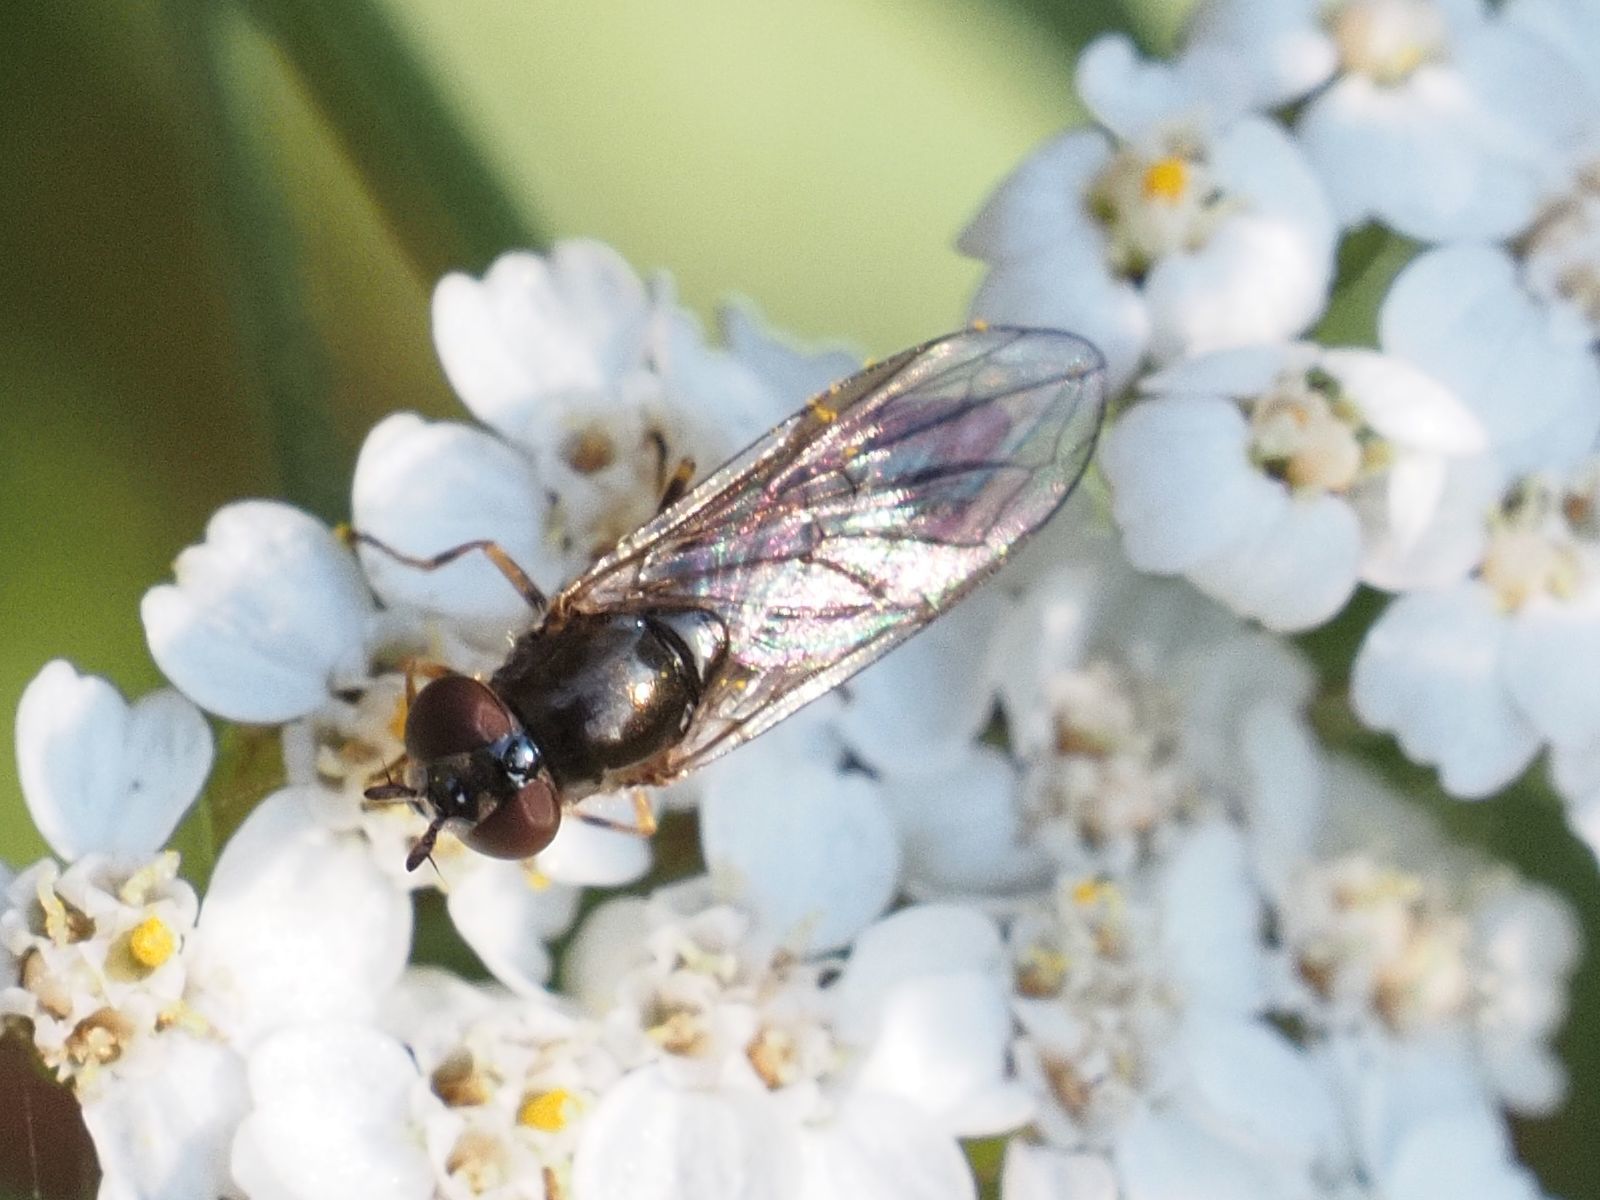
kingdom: Animalia
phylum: Arthropoda
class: Insecta
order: Diptera
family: Syrphidae
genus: Melanostoma
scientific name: Melanostoma scalare
